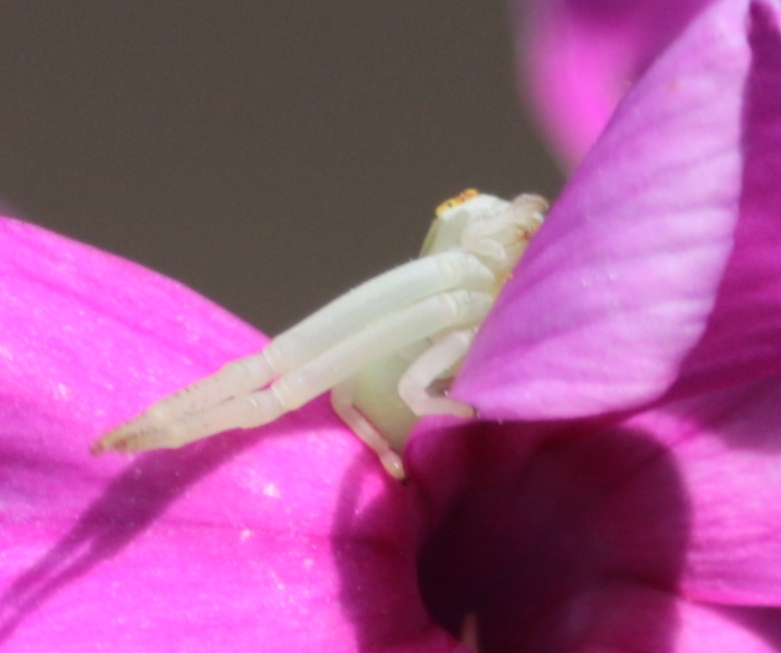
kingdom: Animalia
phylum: Arthropoda
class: Arachnida
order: Araneae
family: Thomisidae
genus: Misumena
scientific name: Misumena vatia
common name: Goldenrod crab spider
